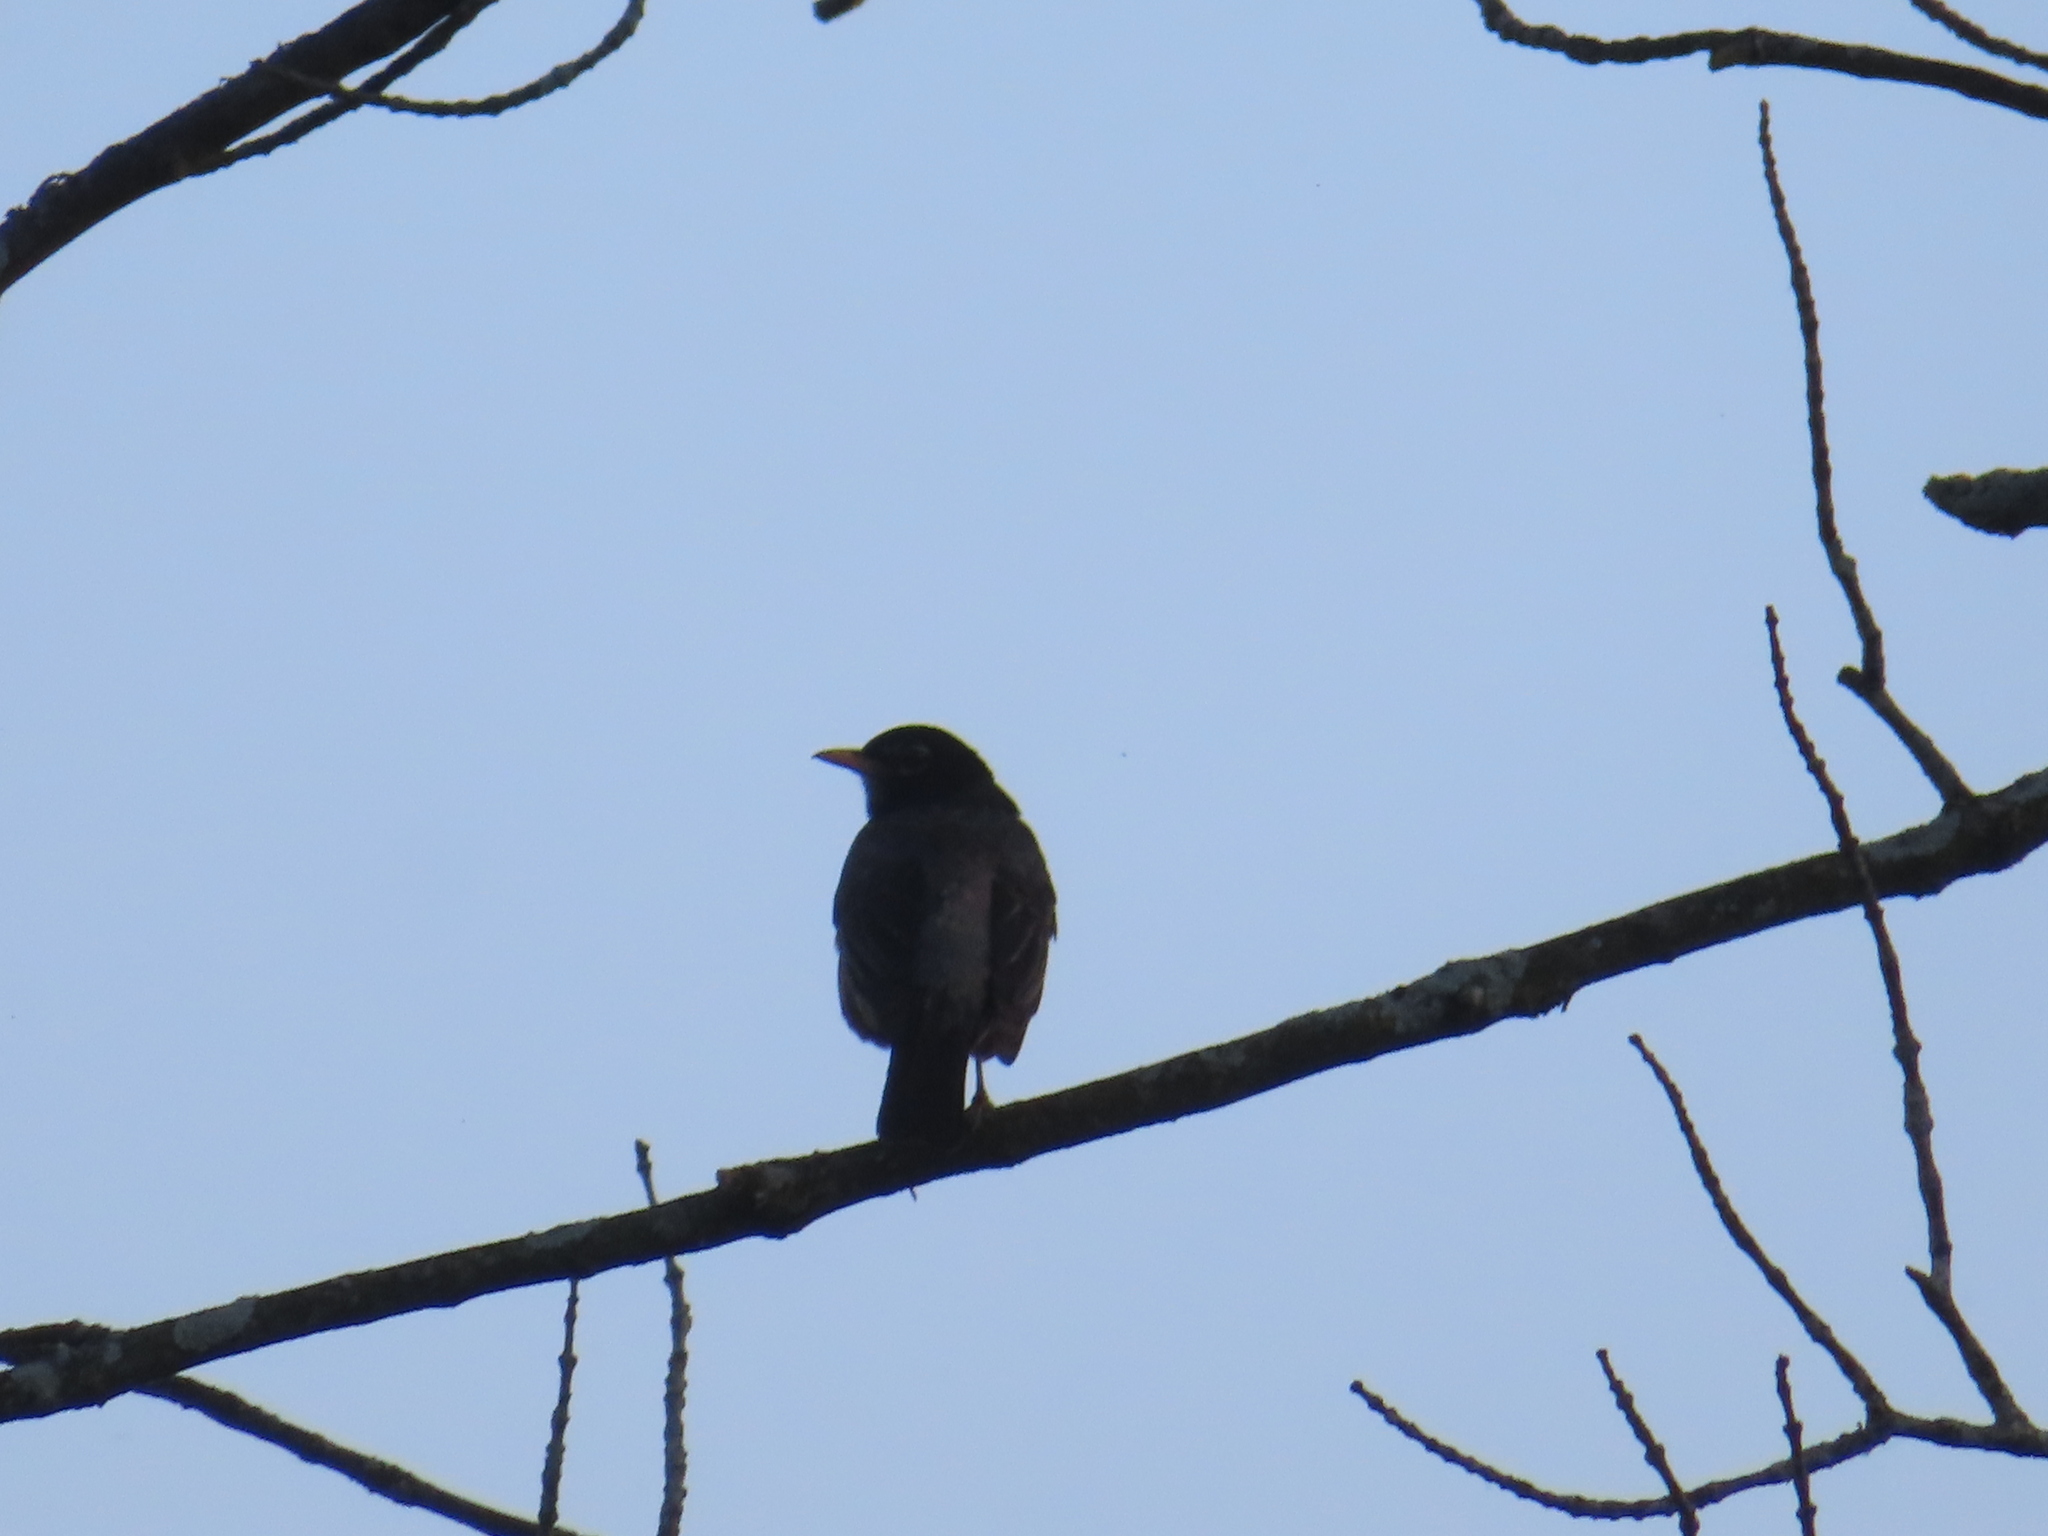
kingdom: Animalia
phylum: Chordata
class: Aves
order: Passeriformes
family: Turdidae
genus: Turdus
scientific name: Turdus migratorius
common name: American robin
